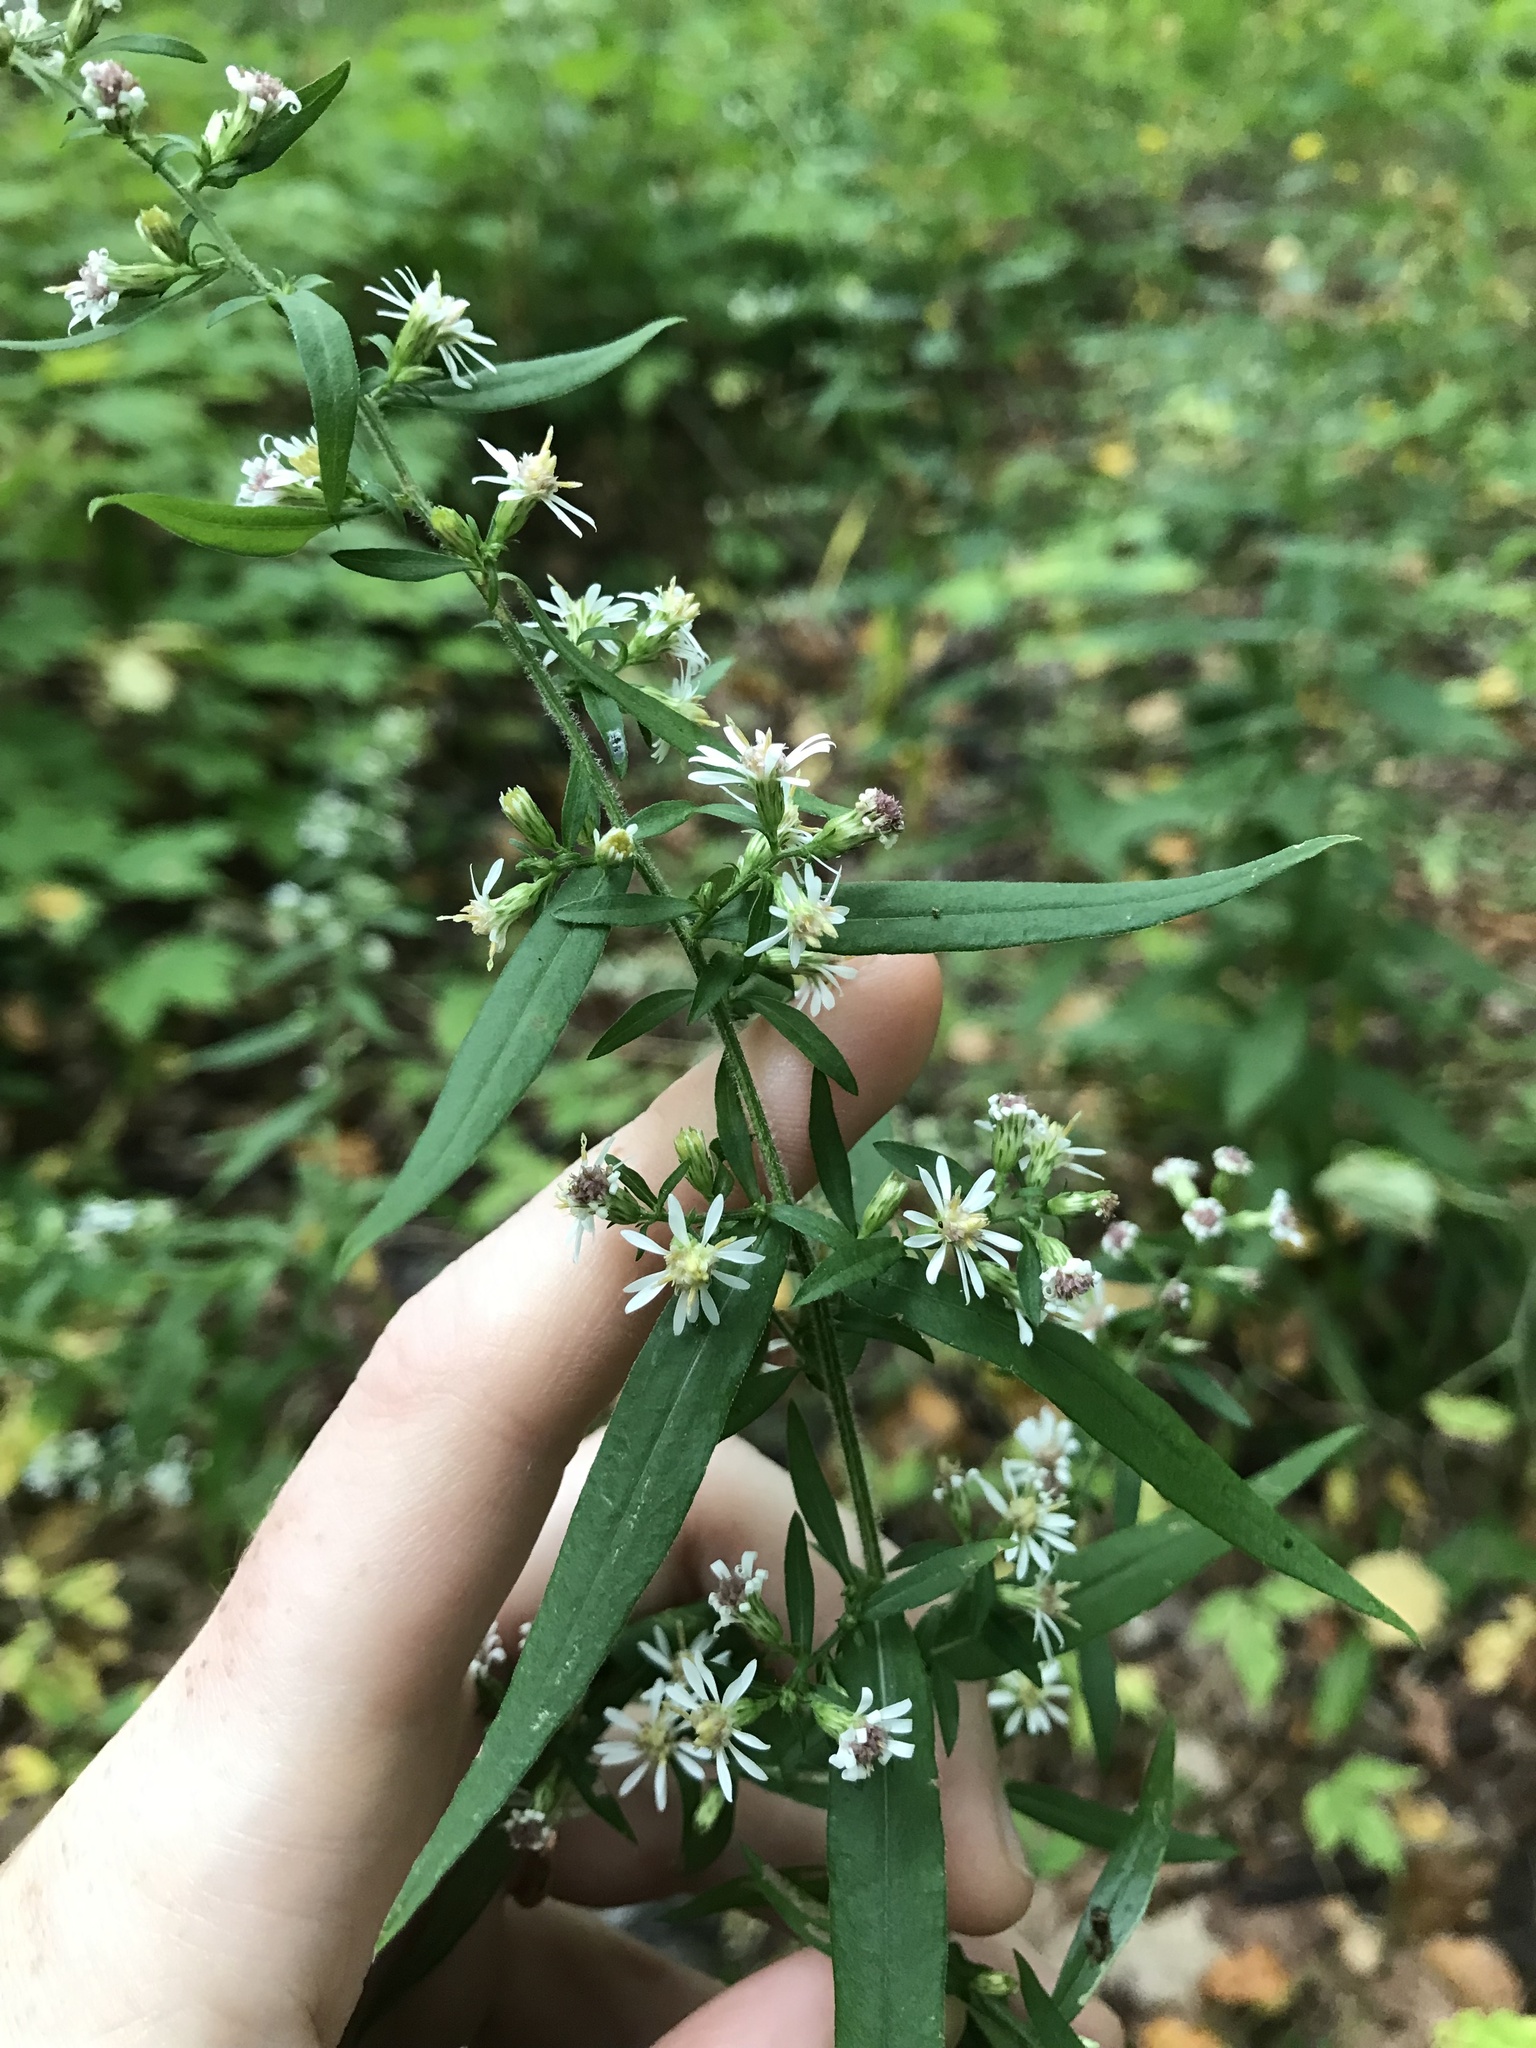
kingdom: Plantae
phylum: Tracheophyta
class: Magnoliopsida
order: Asterales
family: Asteraceae
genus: Symphyotrichum
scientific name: Symphyotrichum lateriflorum
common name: Calico aster
